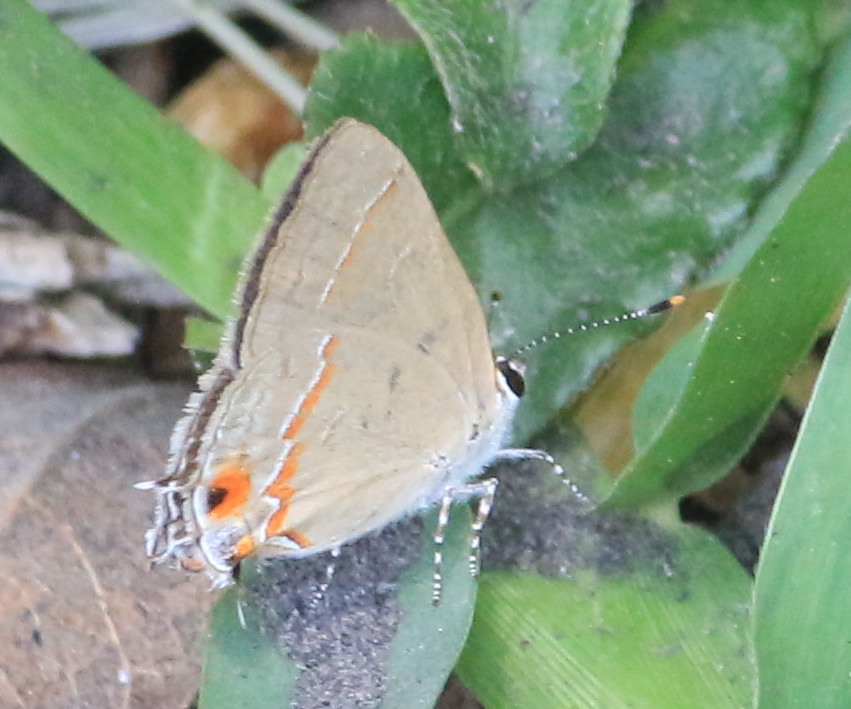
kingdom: Animalia
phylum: Arthropoda
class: Insecta
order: Lepidoptera
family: Lycaenidae
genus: Electrostrymon
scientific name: Electrostrymon endymion
